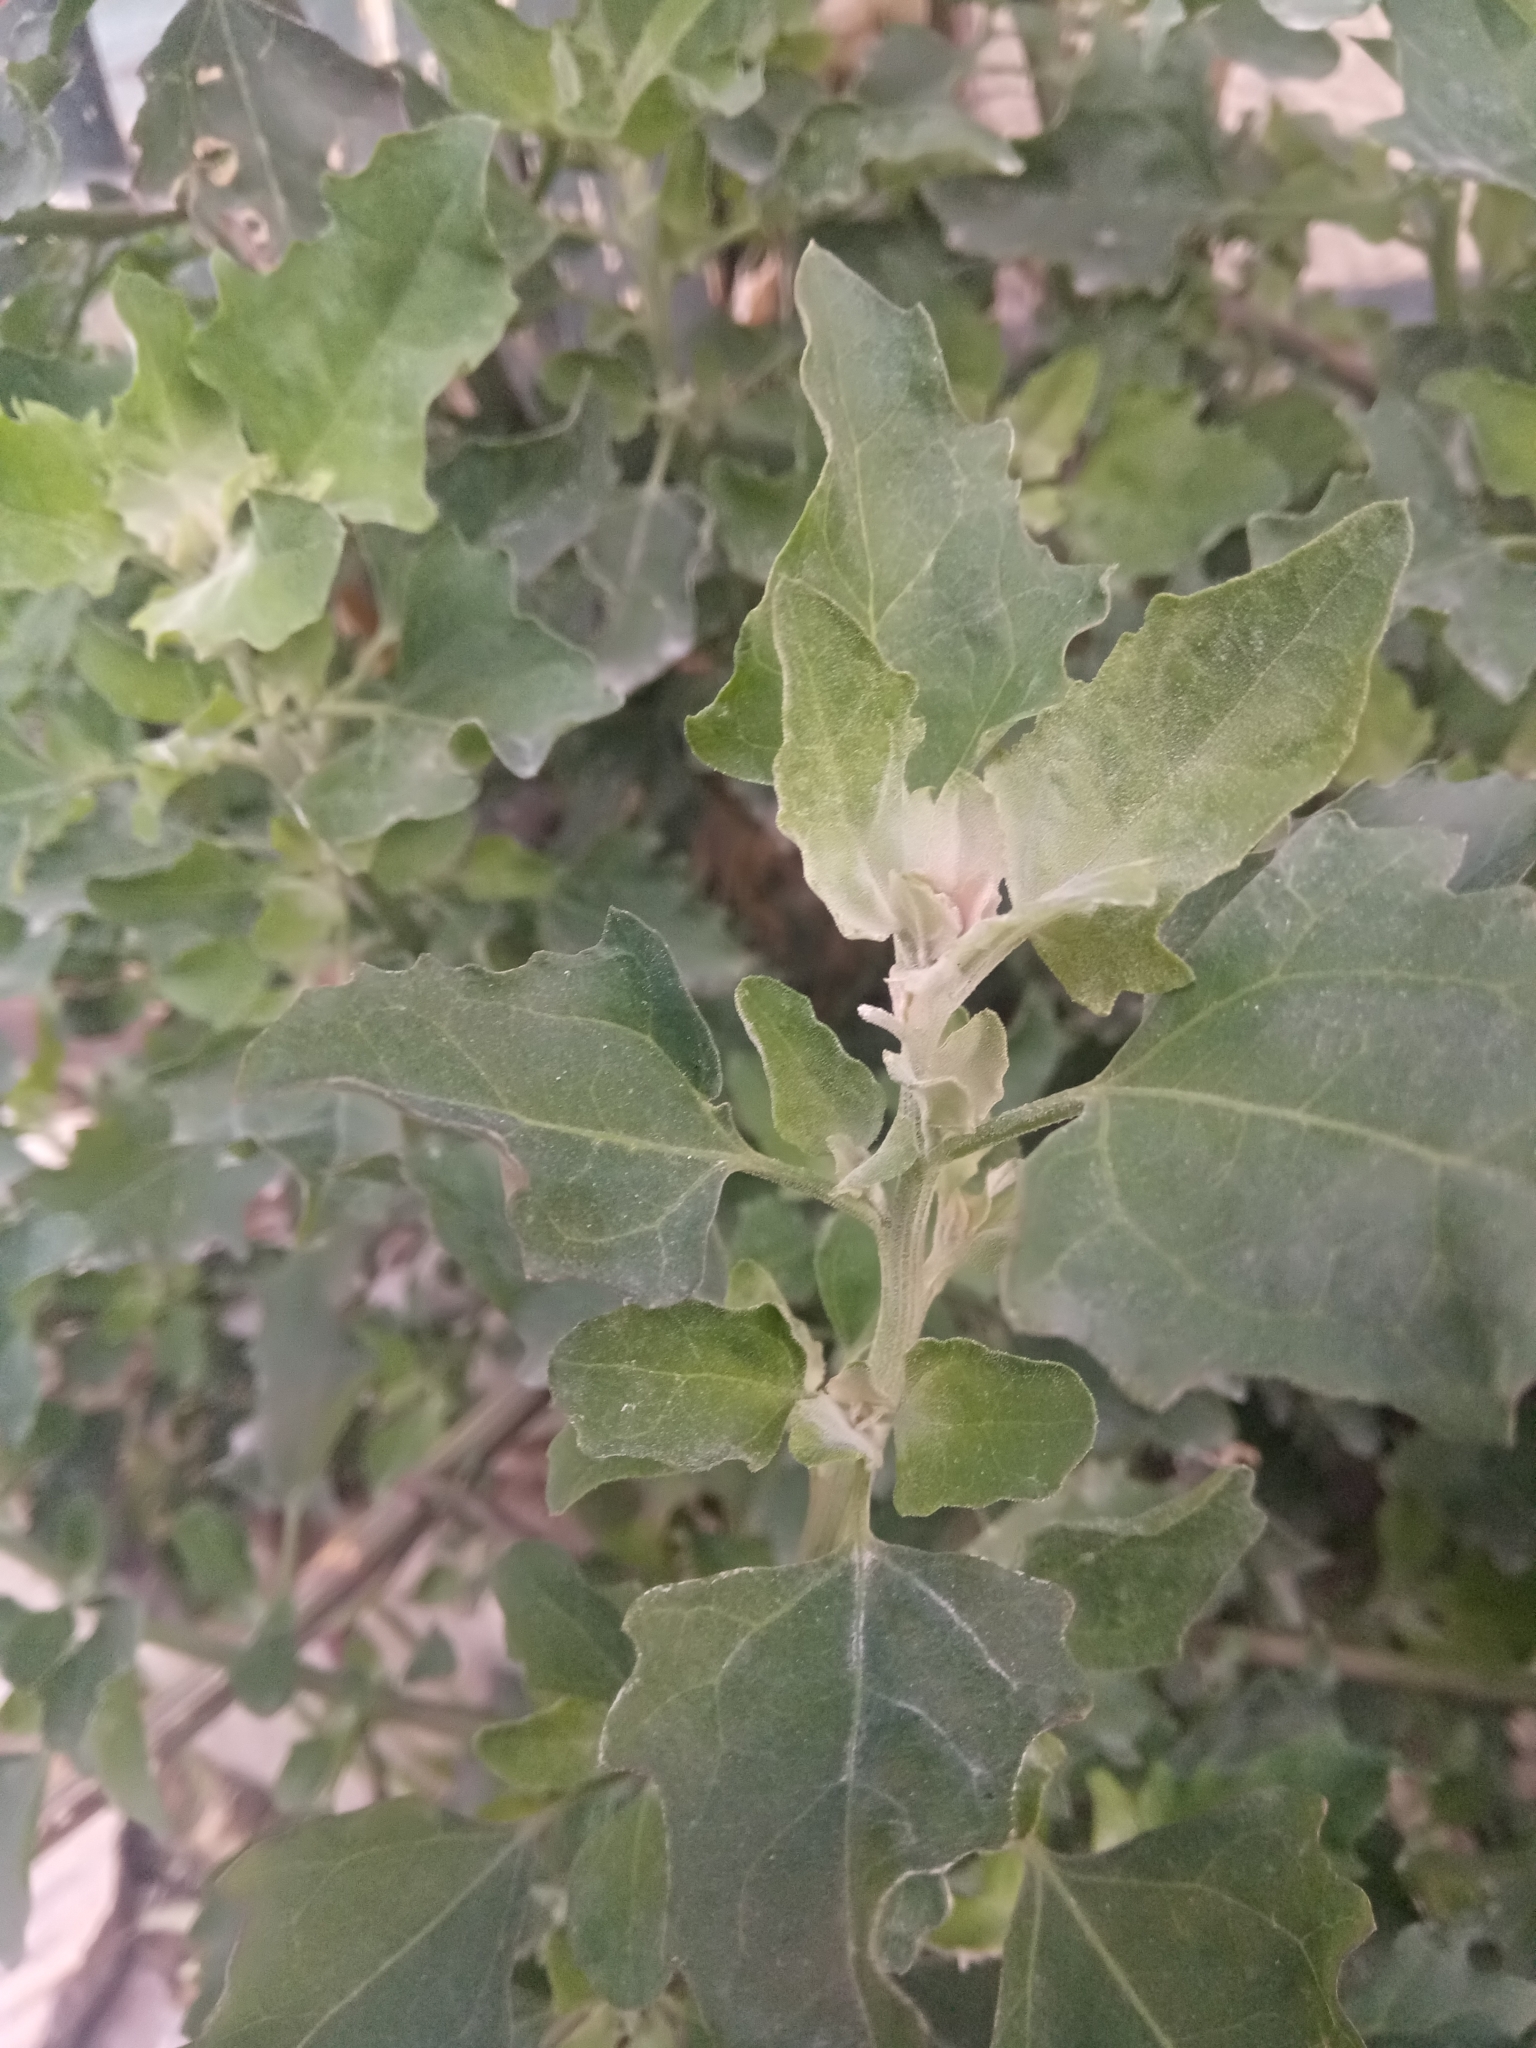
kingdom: Plantae
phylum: Tracheophyta
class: Magnoliopsida
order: Caryophyllales
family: Amaranthaceae
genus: Chenopodium
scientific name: Chenopodium album
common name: Fat-hen
